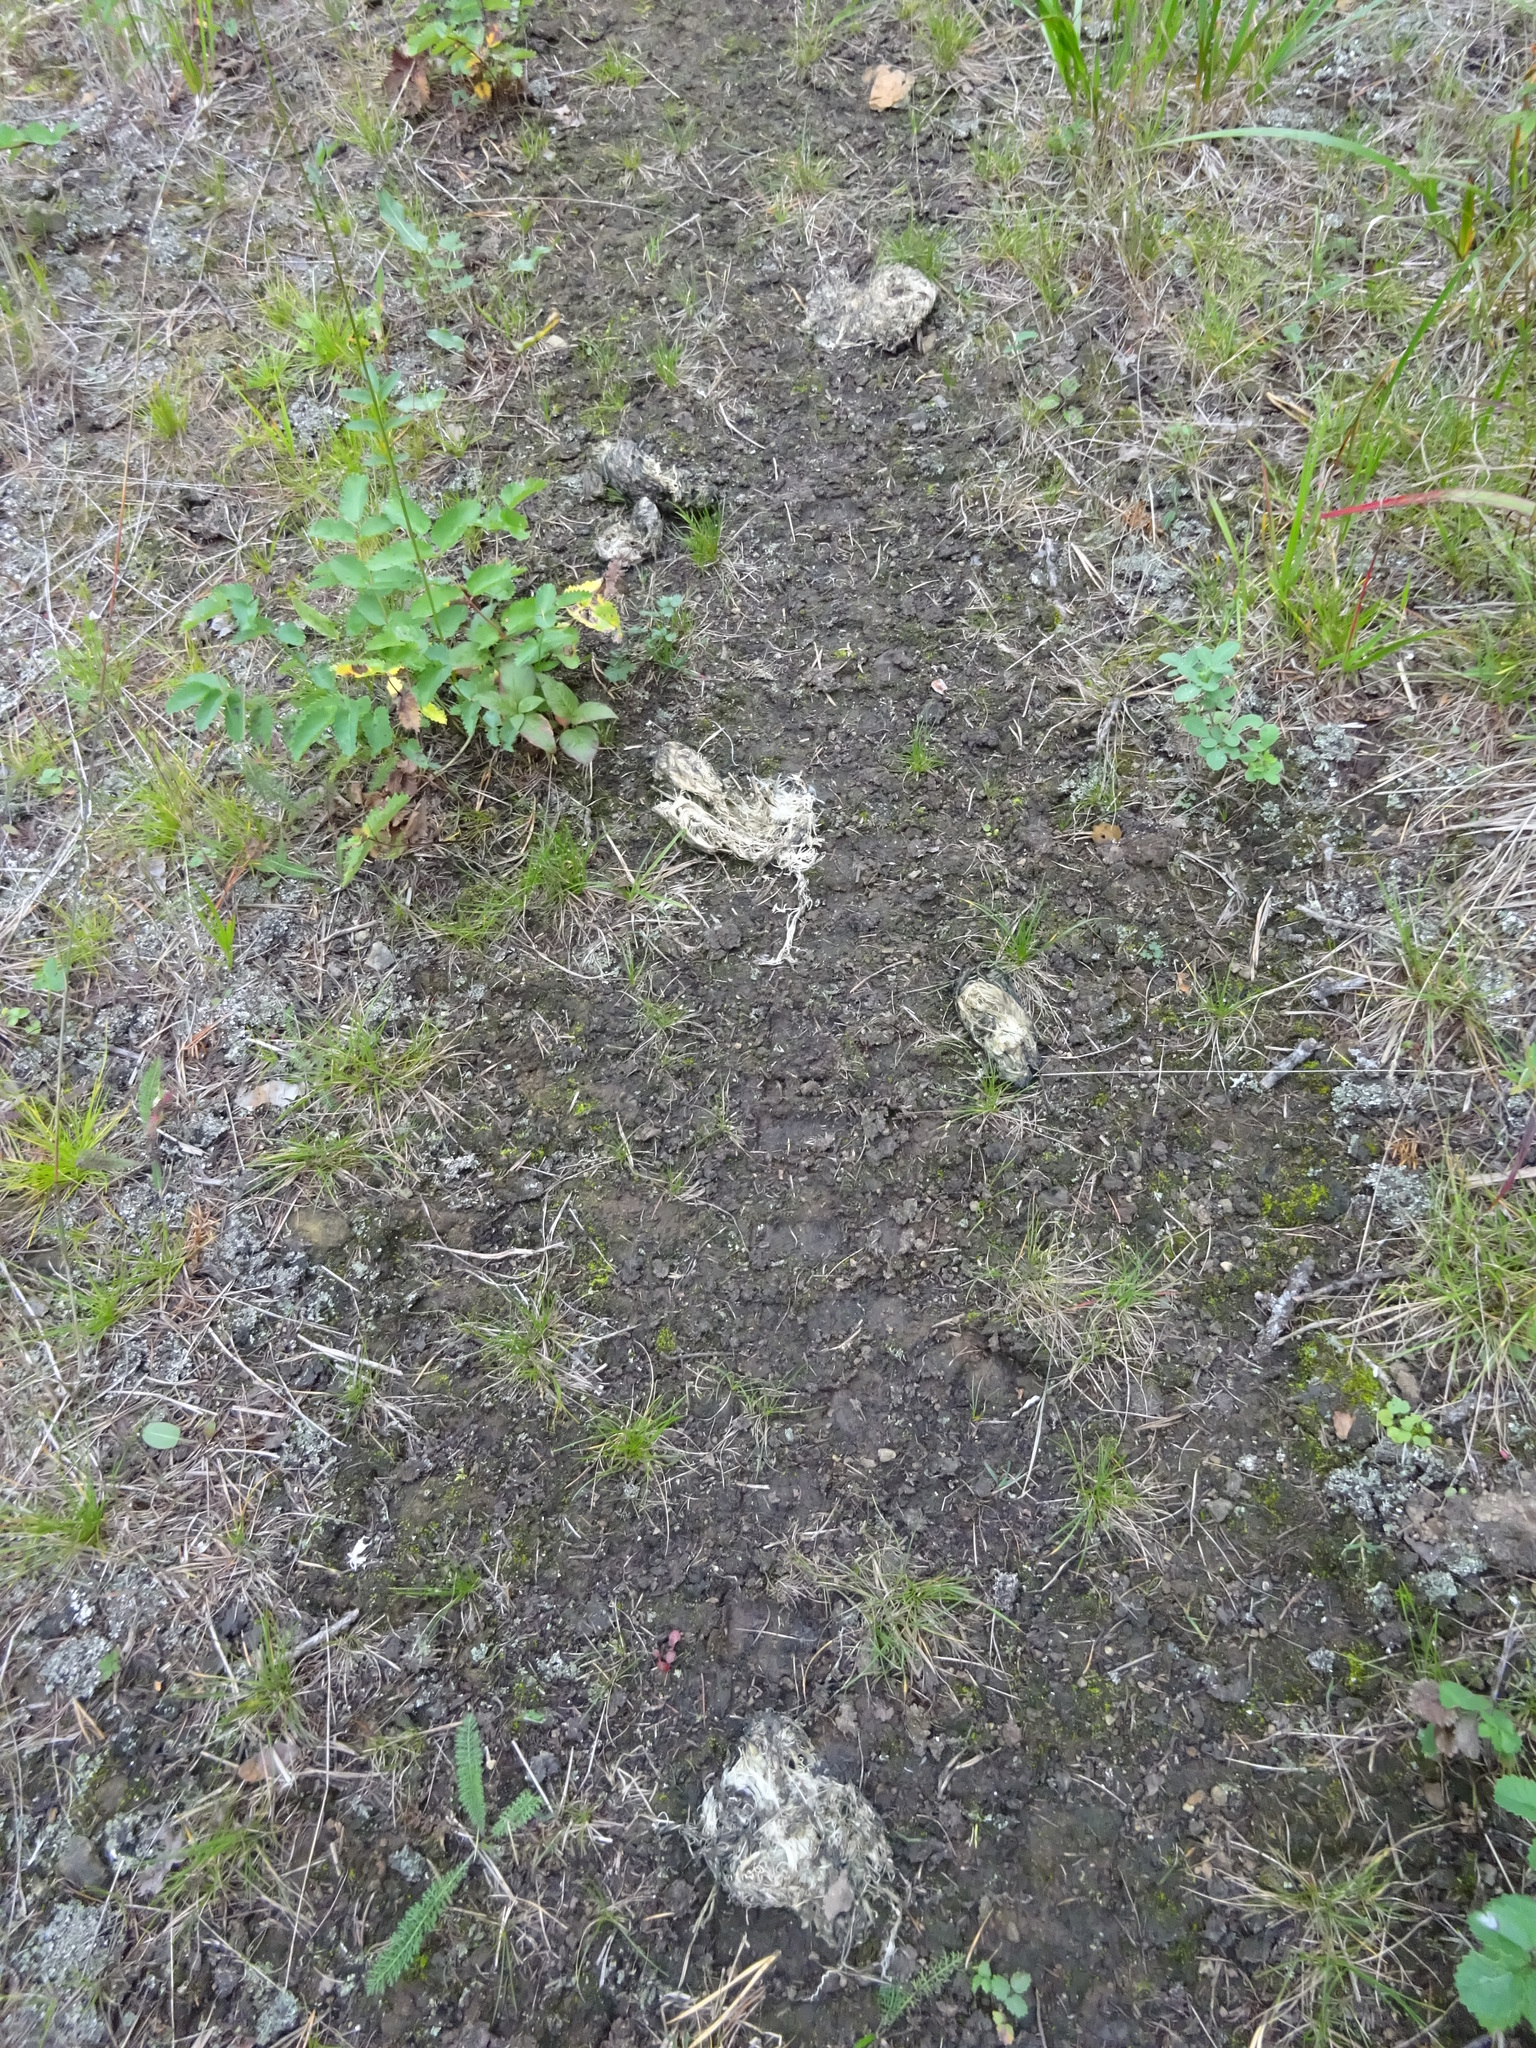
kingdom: Animalia
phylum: Chordata
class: Mammalia
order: Carnivora
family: Ursidae
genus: Ursus
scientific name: Ursus arctos
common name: Brown bear
